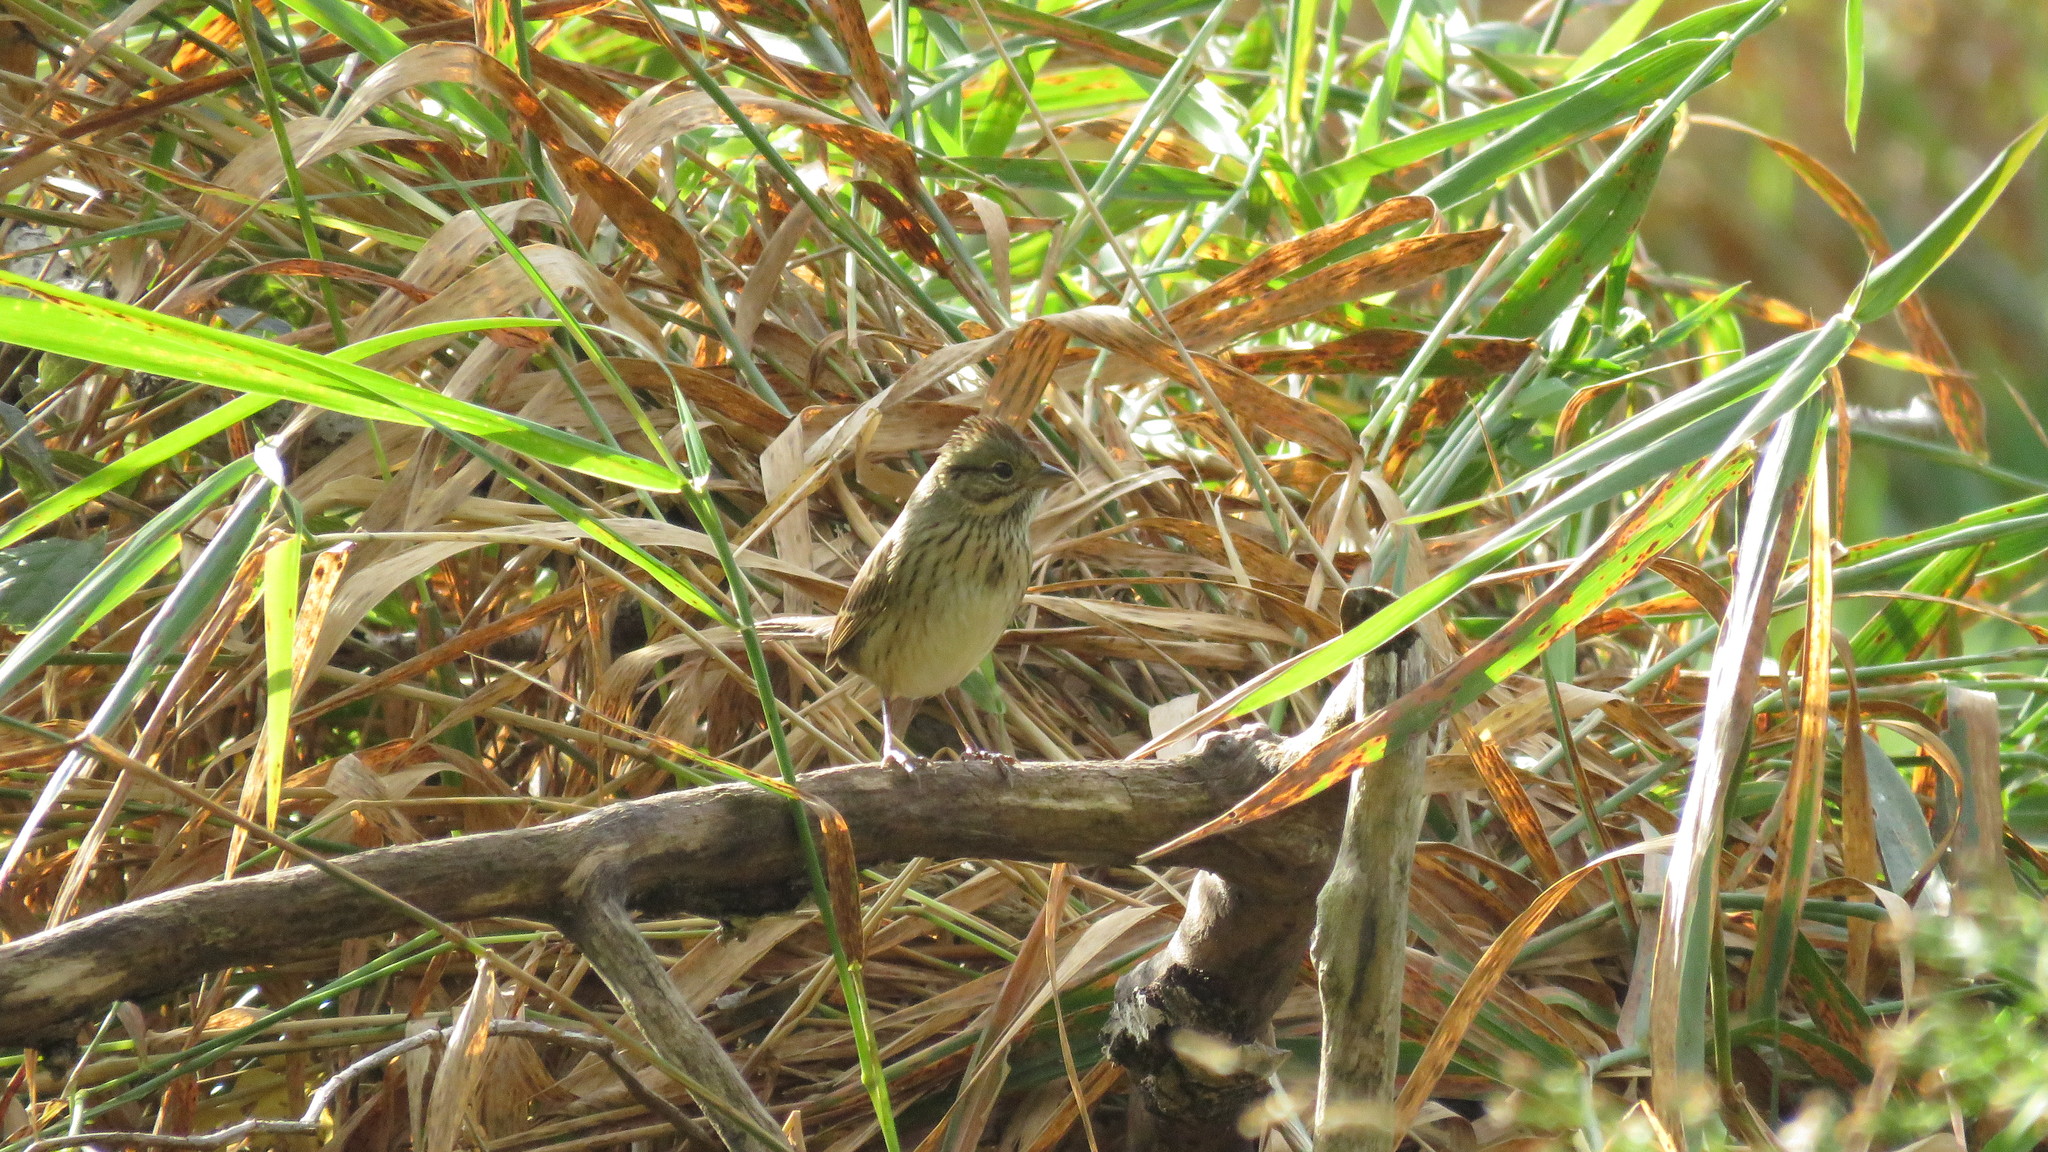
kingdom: Animalia
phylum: Chordata
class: Aves
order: Passeriformes
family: Passerellidae
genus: Melospiza
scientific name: Melospiza lincolnii
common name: Lincoln's sparrow
